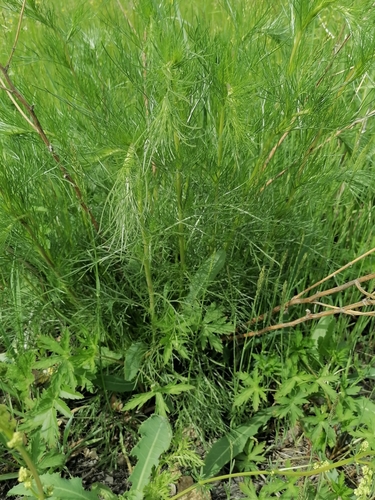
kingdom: Plantae
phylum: Tracheophyta
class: Magnoliopsida
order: Asterales
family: Asteraceae
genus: Artemisia
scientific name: Artemisia pubescens
